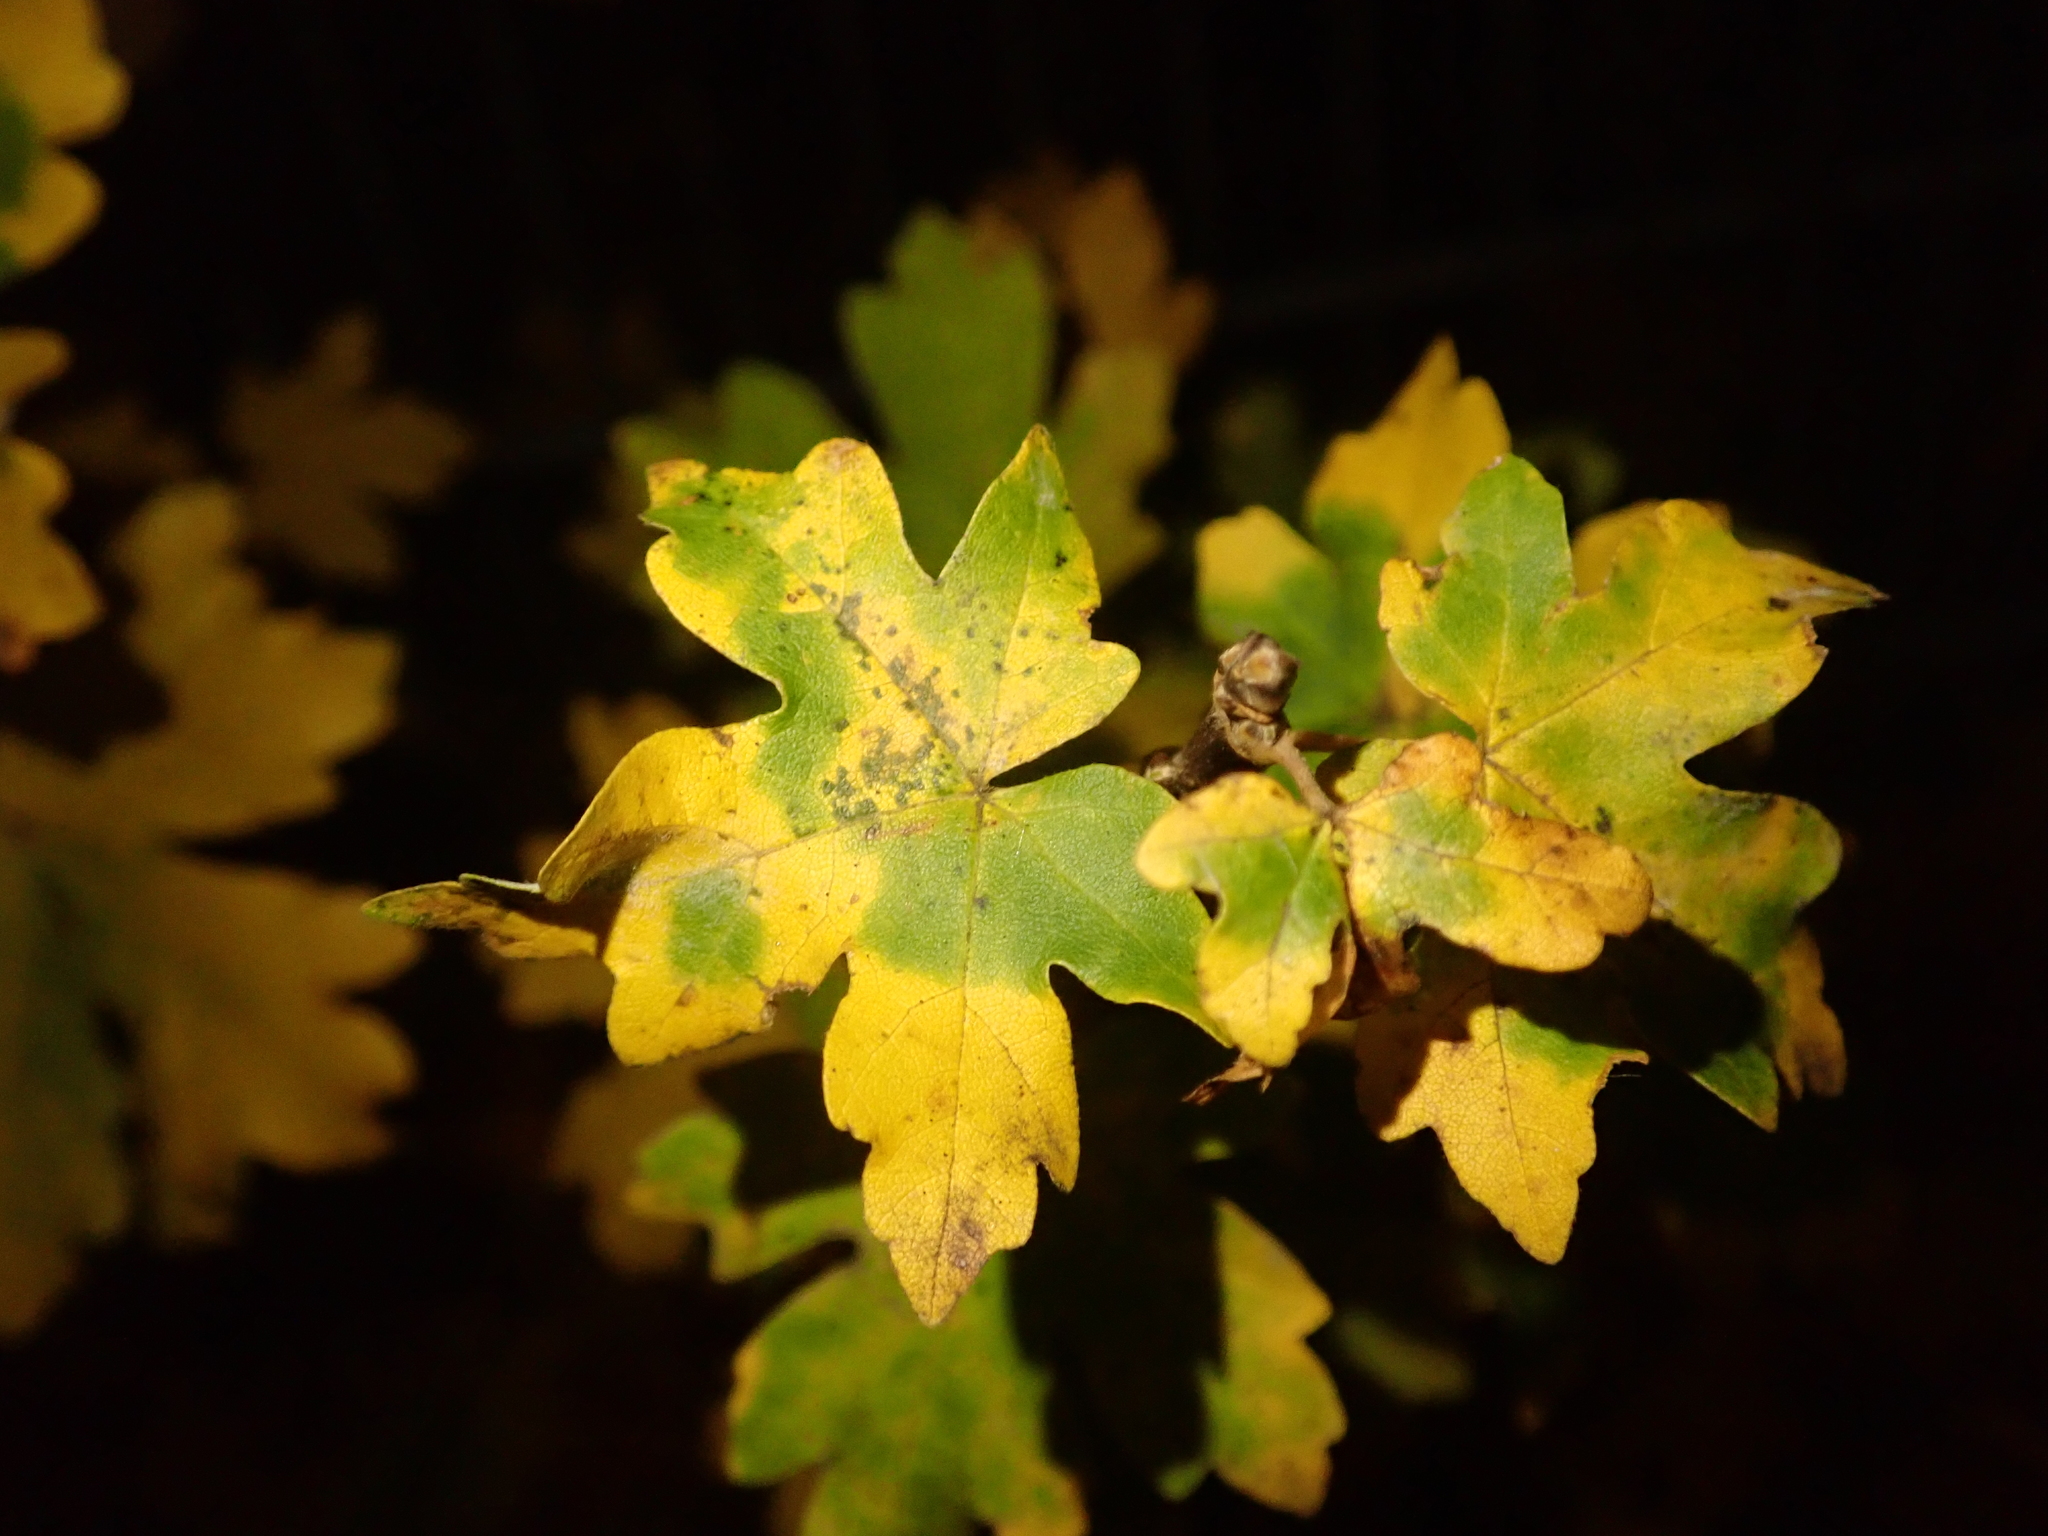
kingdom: Plantae
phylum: Tracheophyta
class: Magnoliopsida
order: Sapindales
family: Sapindaceae
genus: Acer
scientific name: Acer campestre
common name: Field maple
